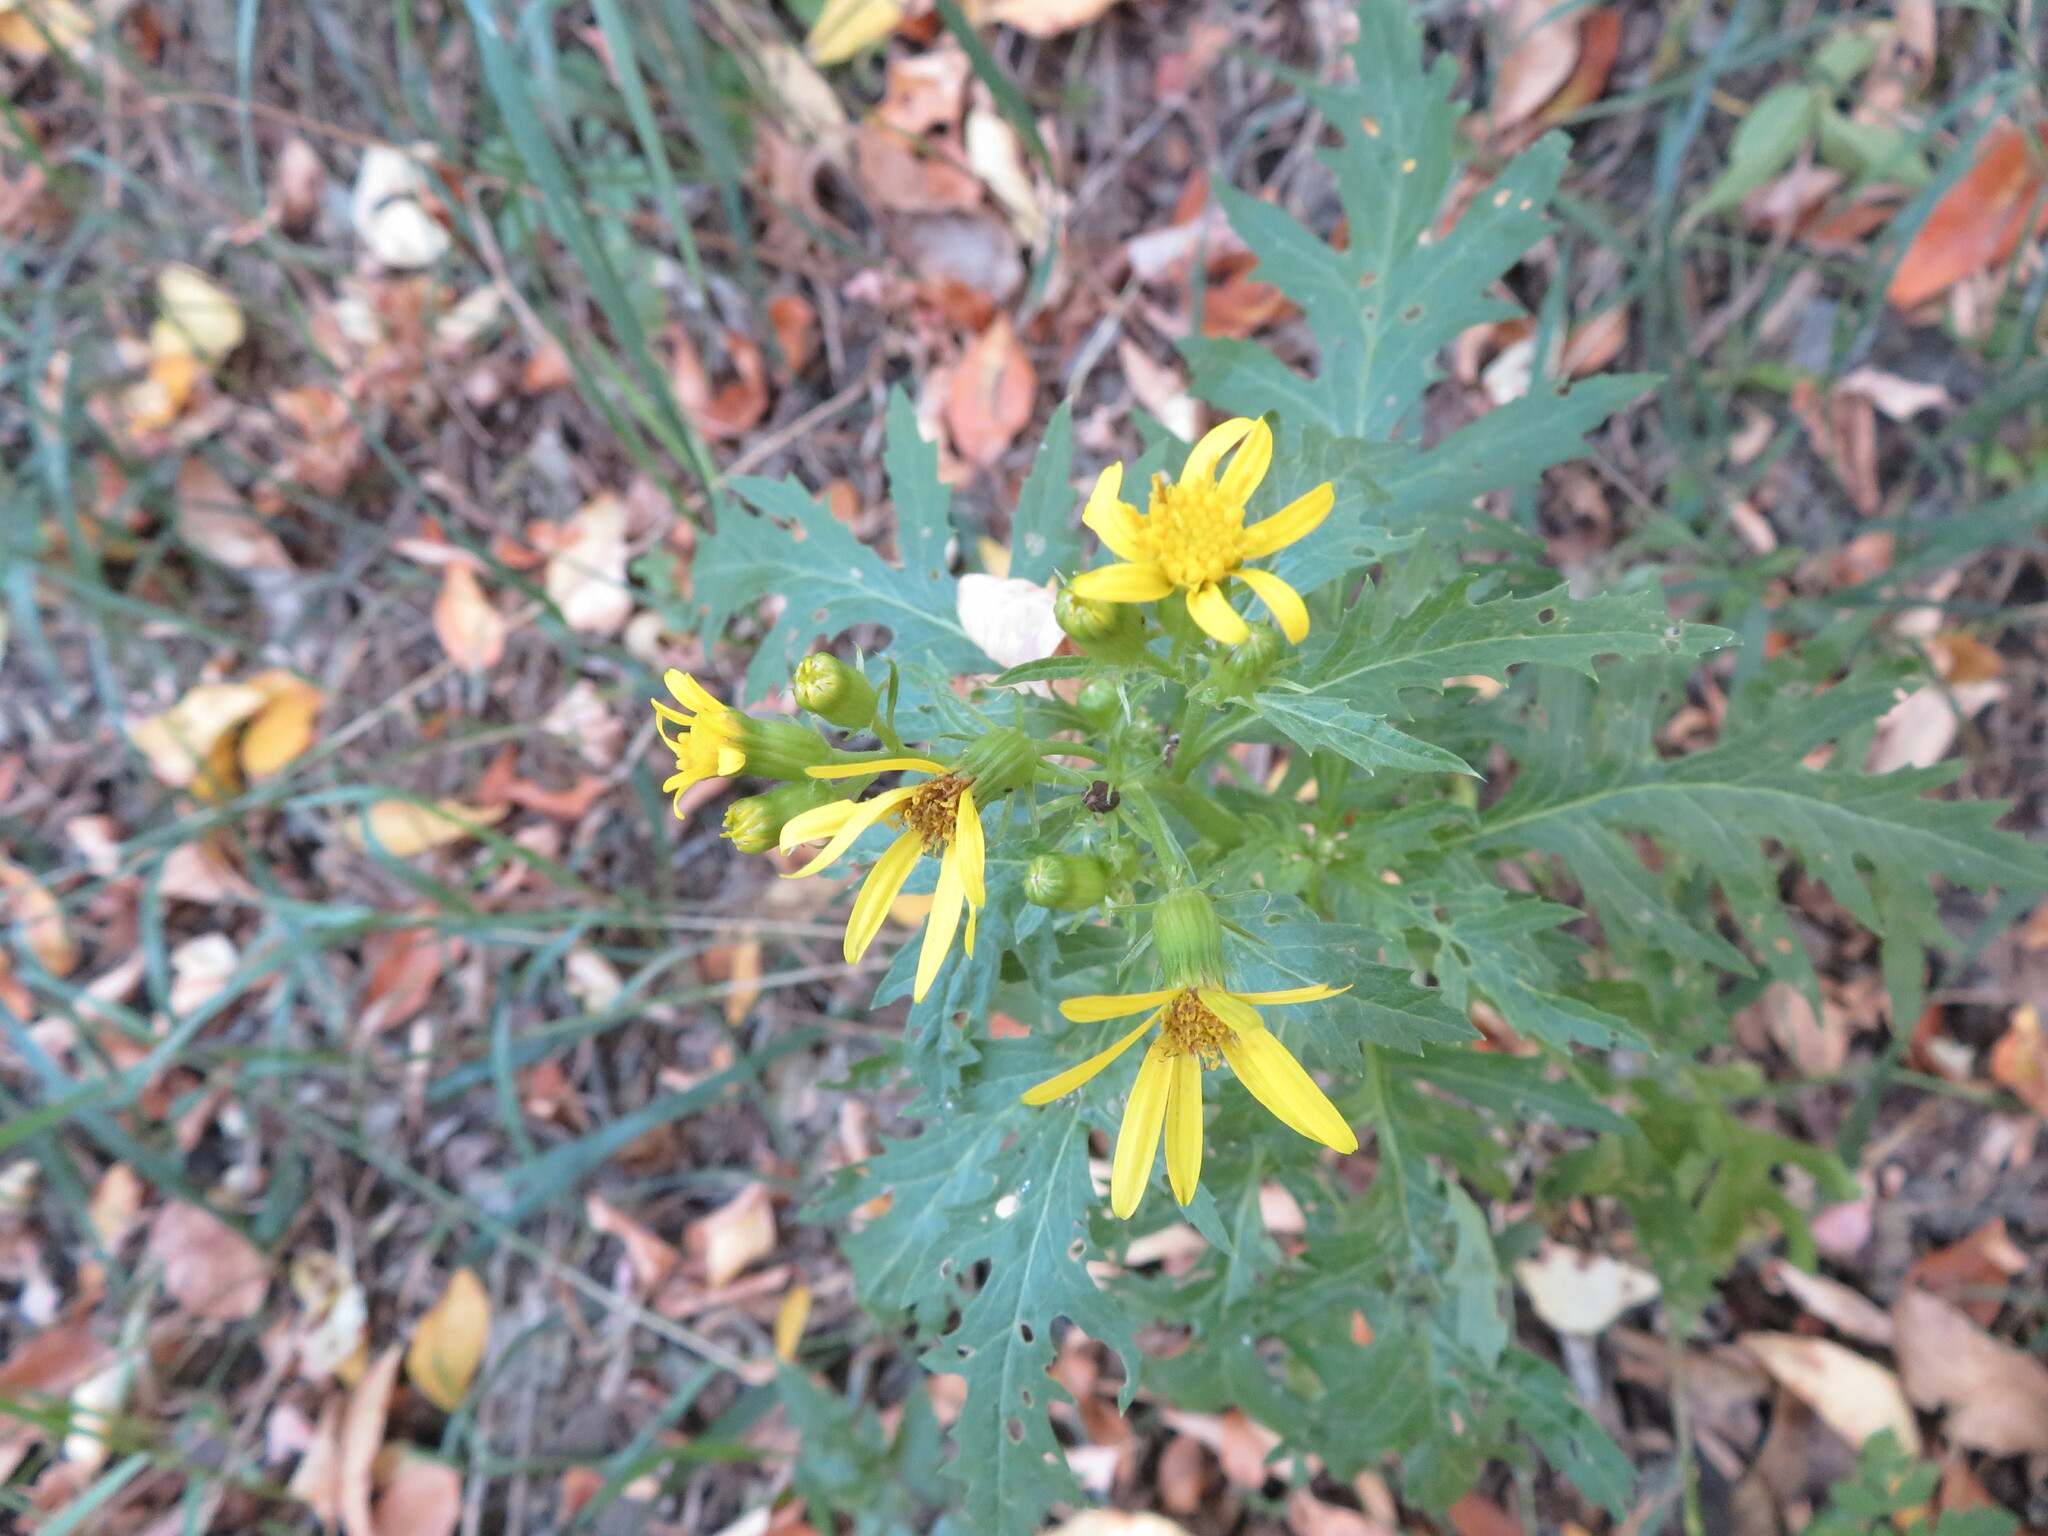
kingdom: Plantae
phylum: Tracheophyta
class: Magnoliopsida
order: Asterales
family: Asteraceae
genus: Senecio
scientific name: Senecio eremophilus
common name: Desert ragwort
